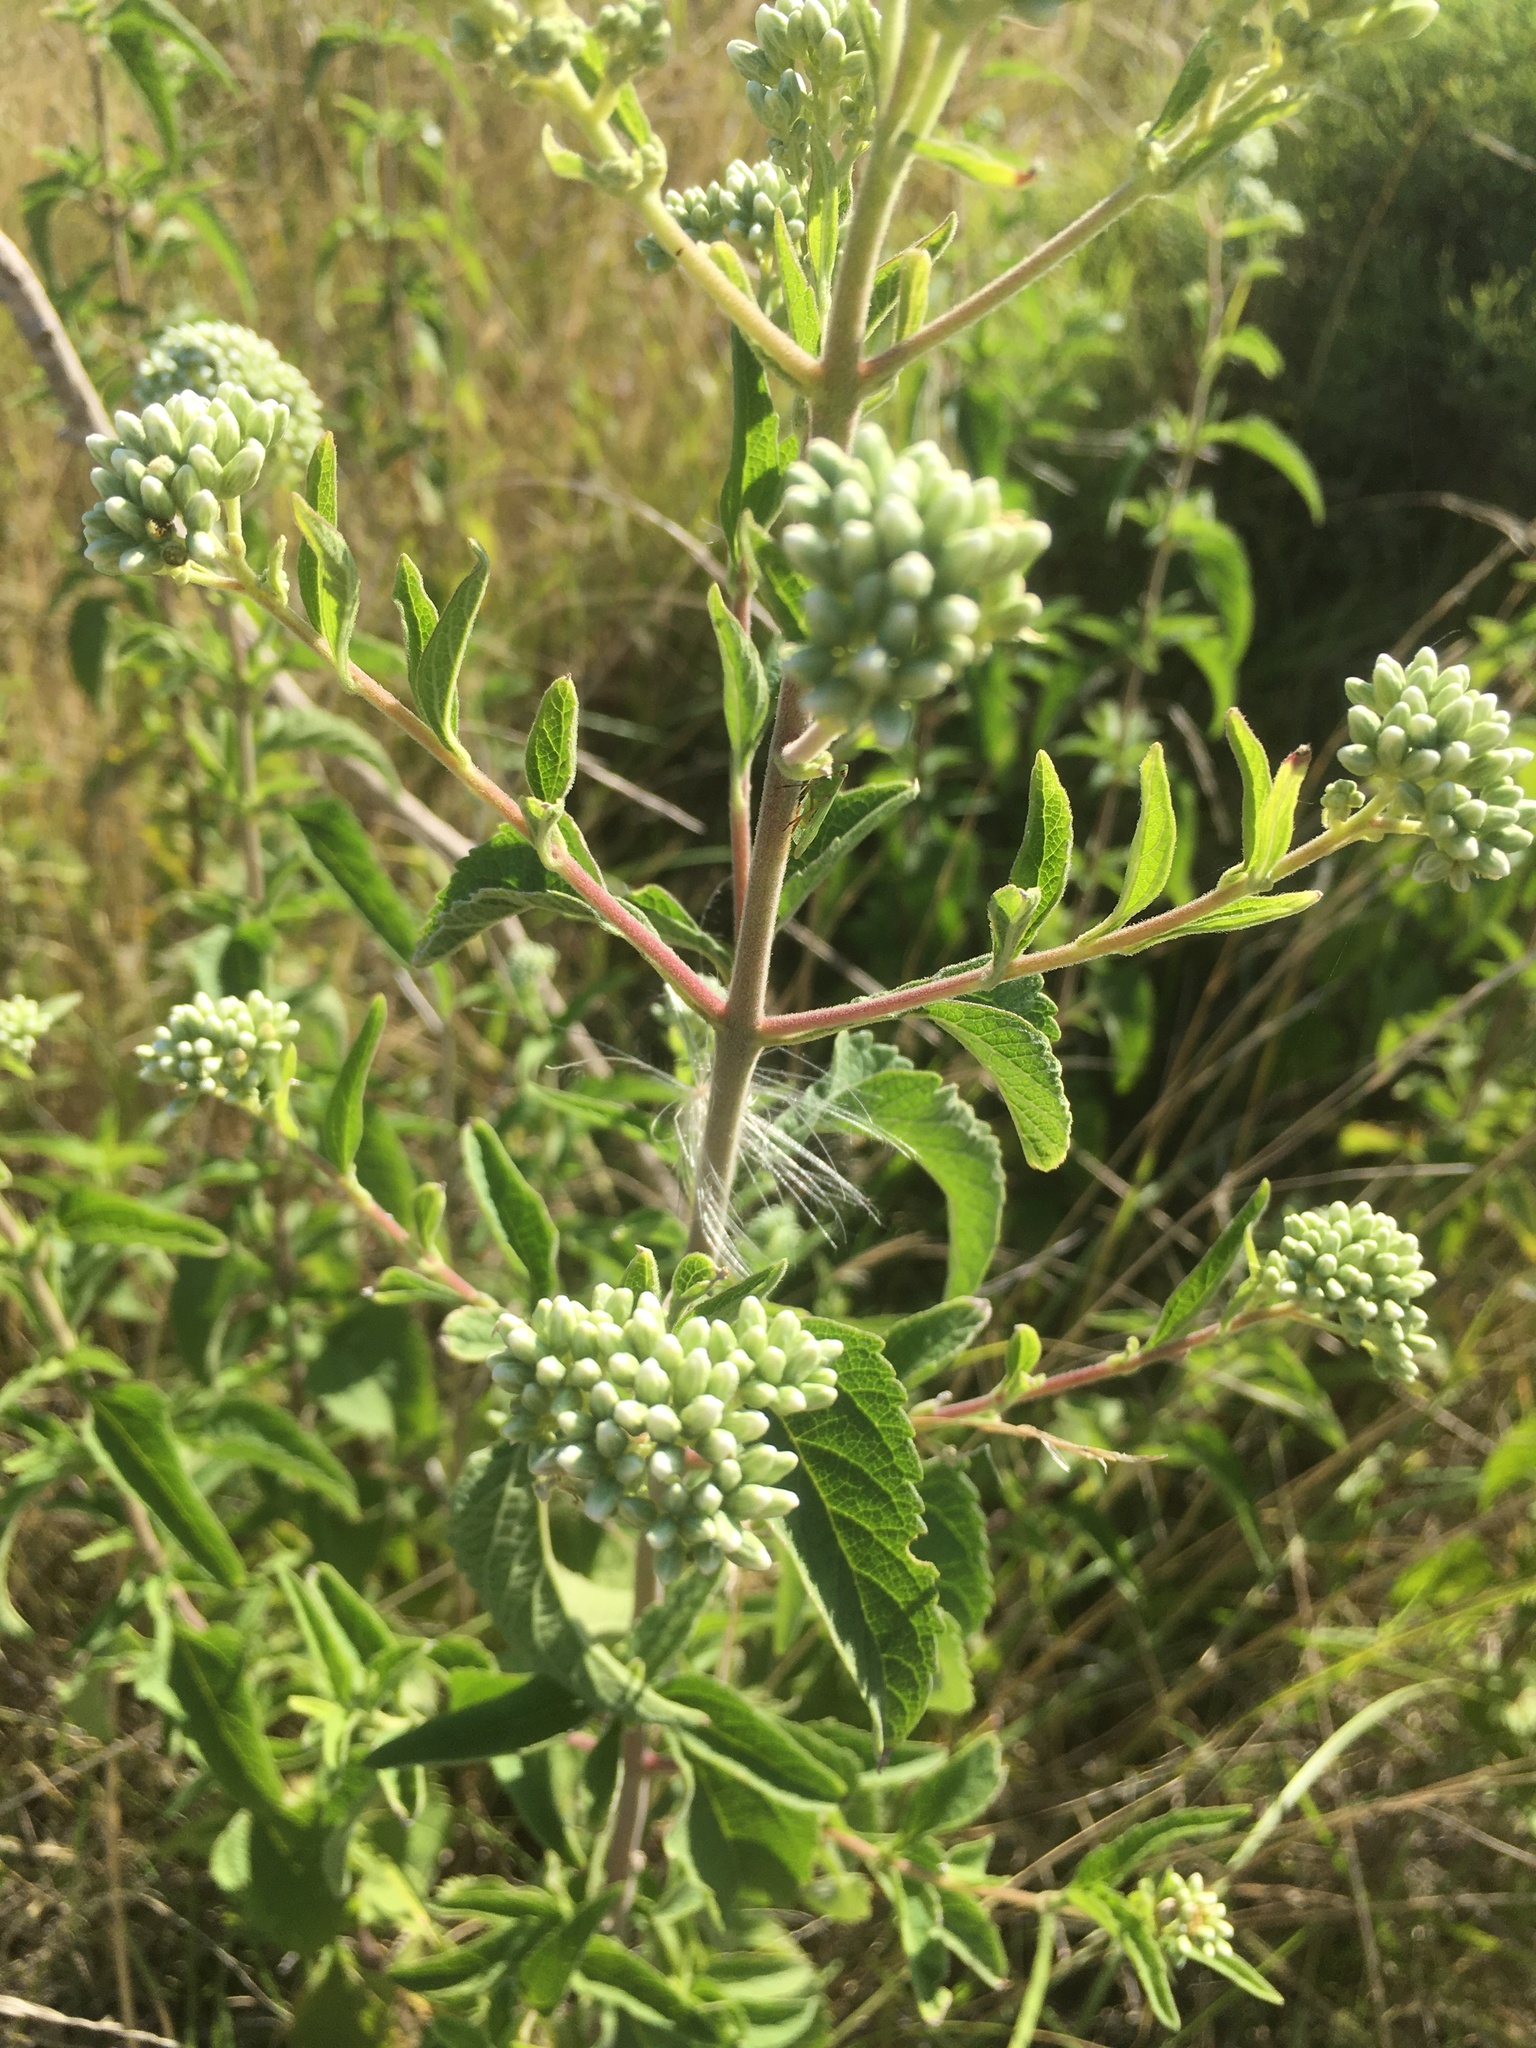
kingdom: Plantae
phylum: Tracheophyta
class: Magnoliopsida
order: Asterales
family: Asteraceae
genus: Austroeupatorium
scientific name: Austroeupatorium inulifolium
